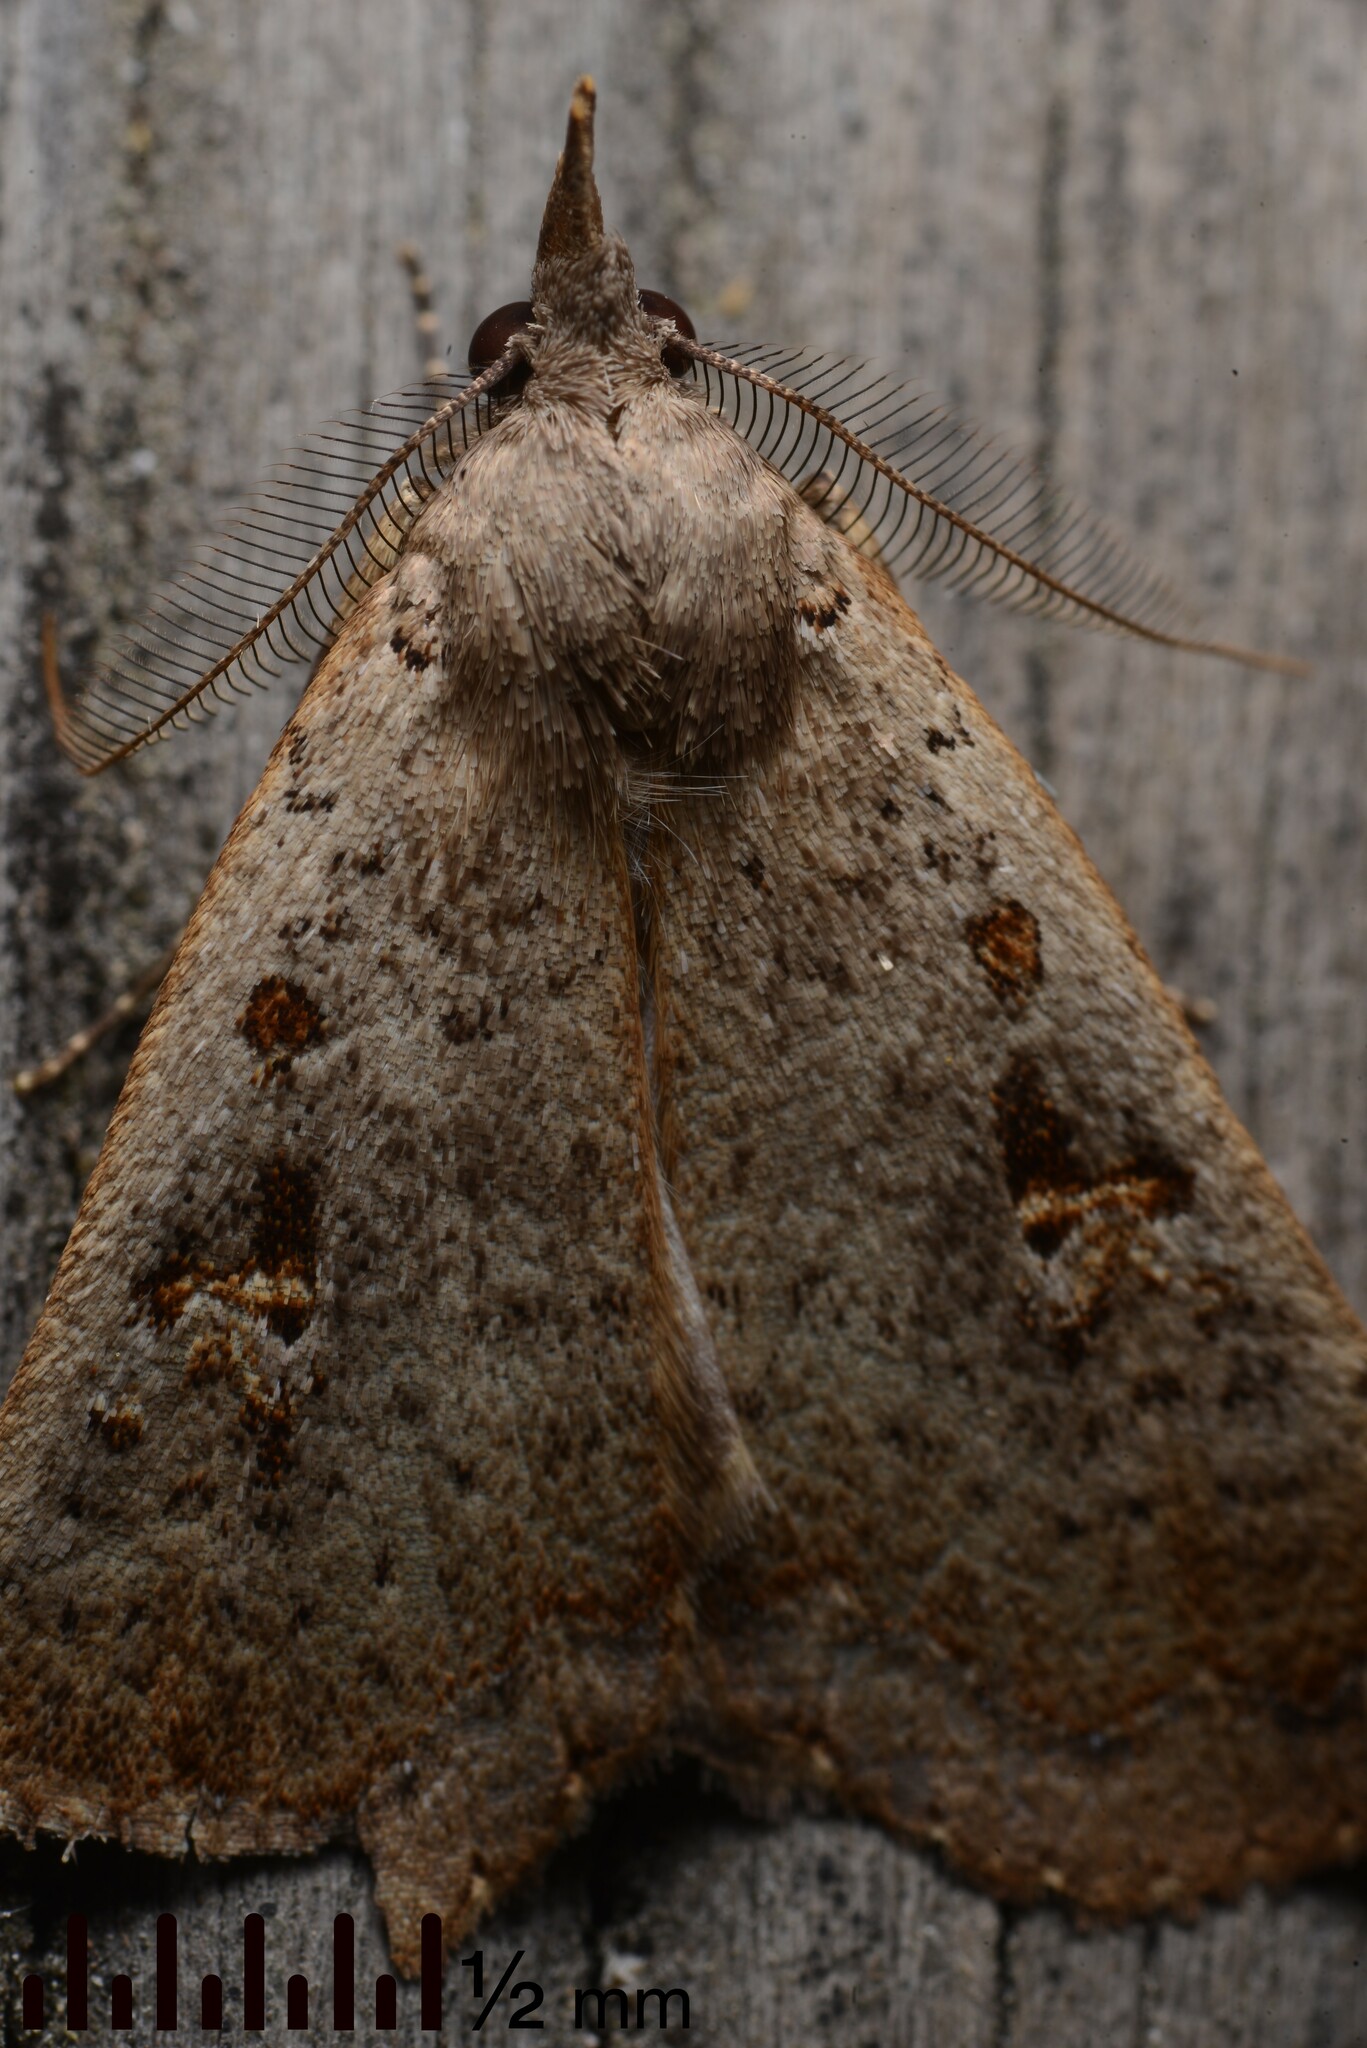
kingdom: Animalia
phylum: Arthropoda
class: Insecta
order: Lepidoptera
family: Erebidae
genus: Rhapsa
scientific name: Rhapsa scotosialis
